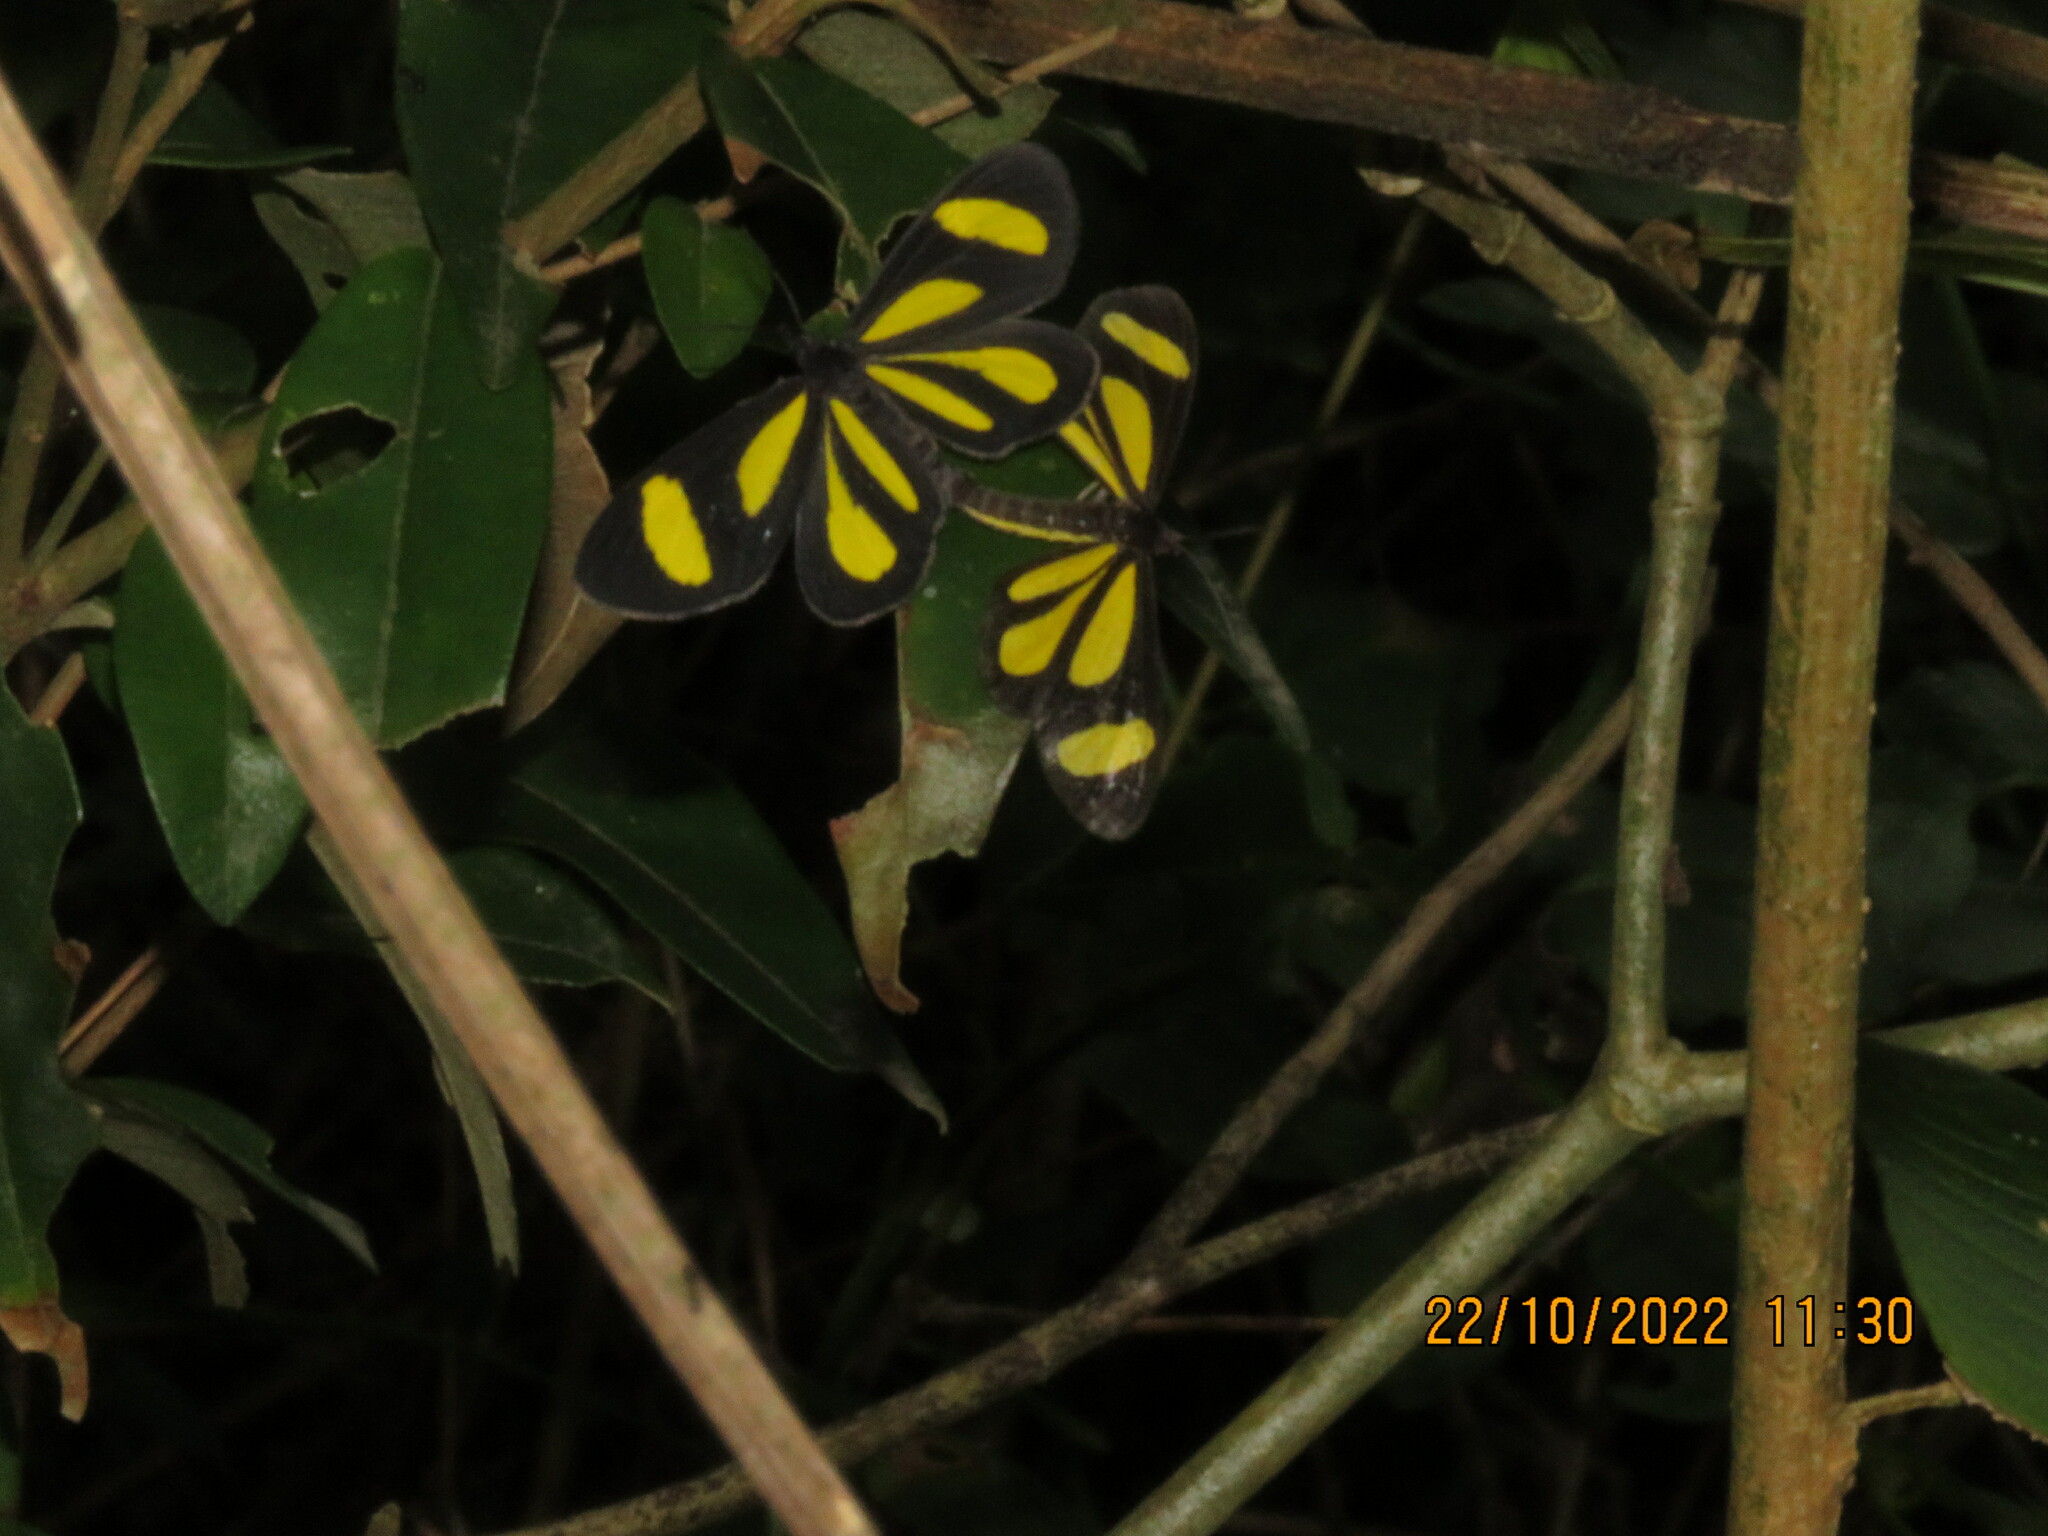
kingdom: Animalia
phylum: Arthropoda
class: Insecta
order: Lepidoptera
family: Geometridae
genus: Cyllopoda
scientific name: Cyllopoda claudicula
